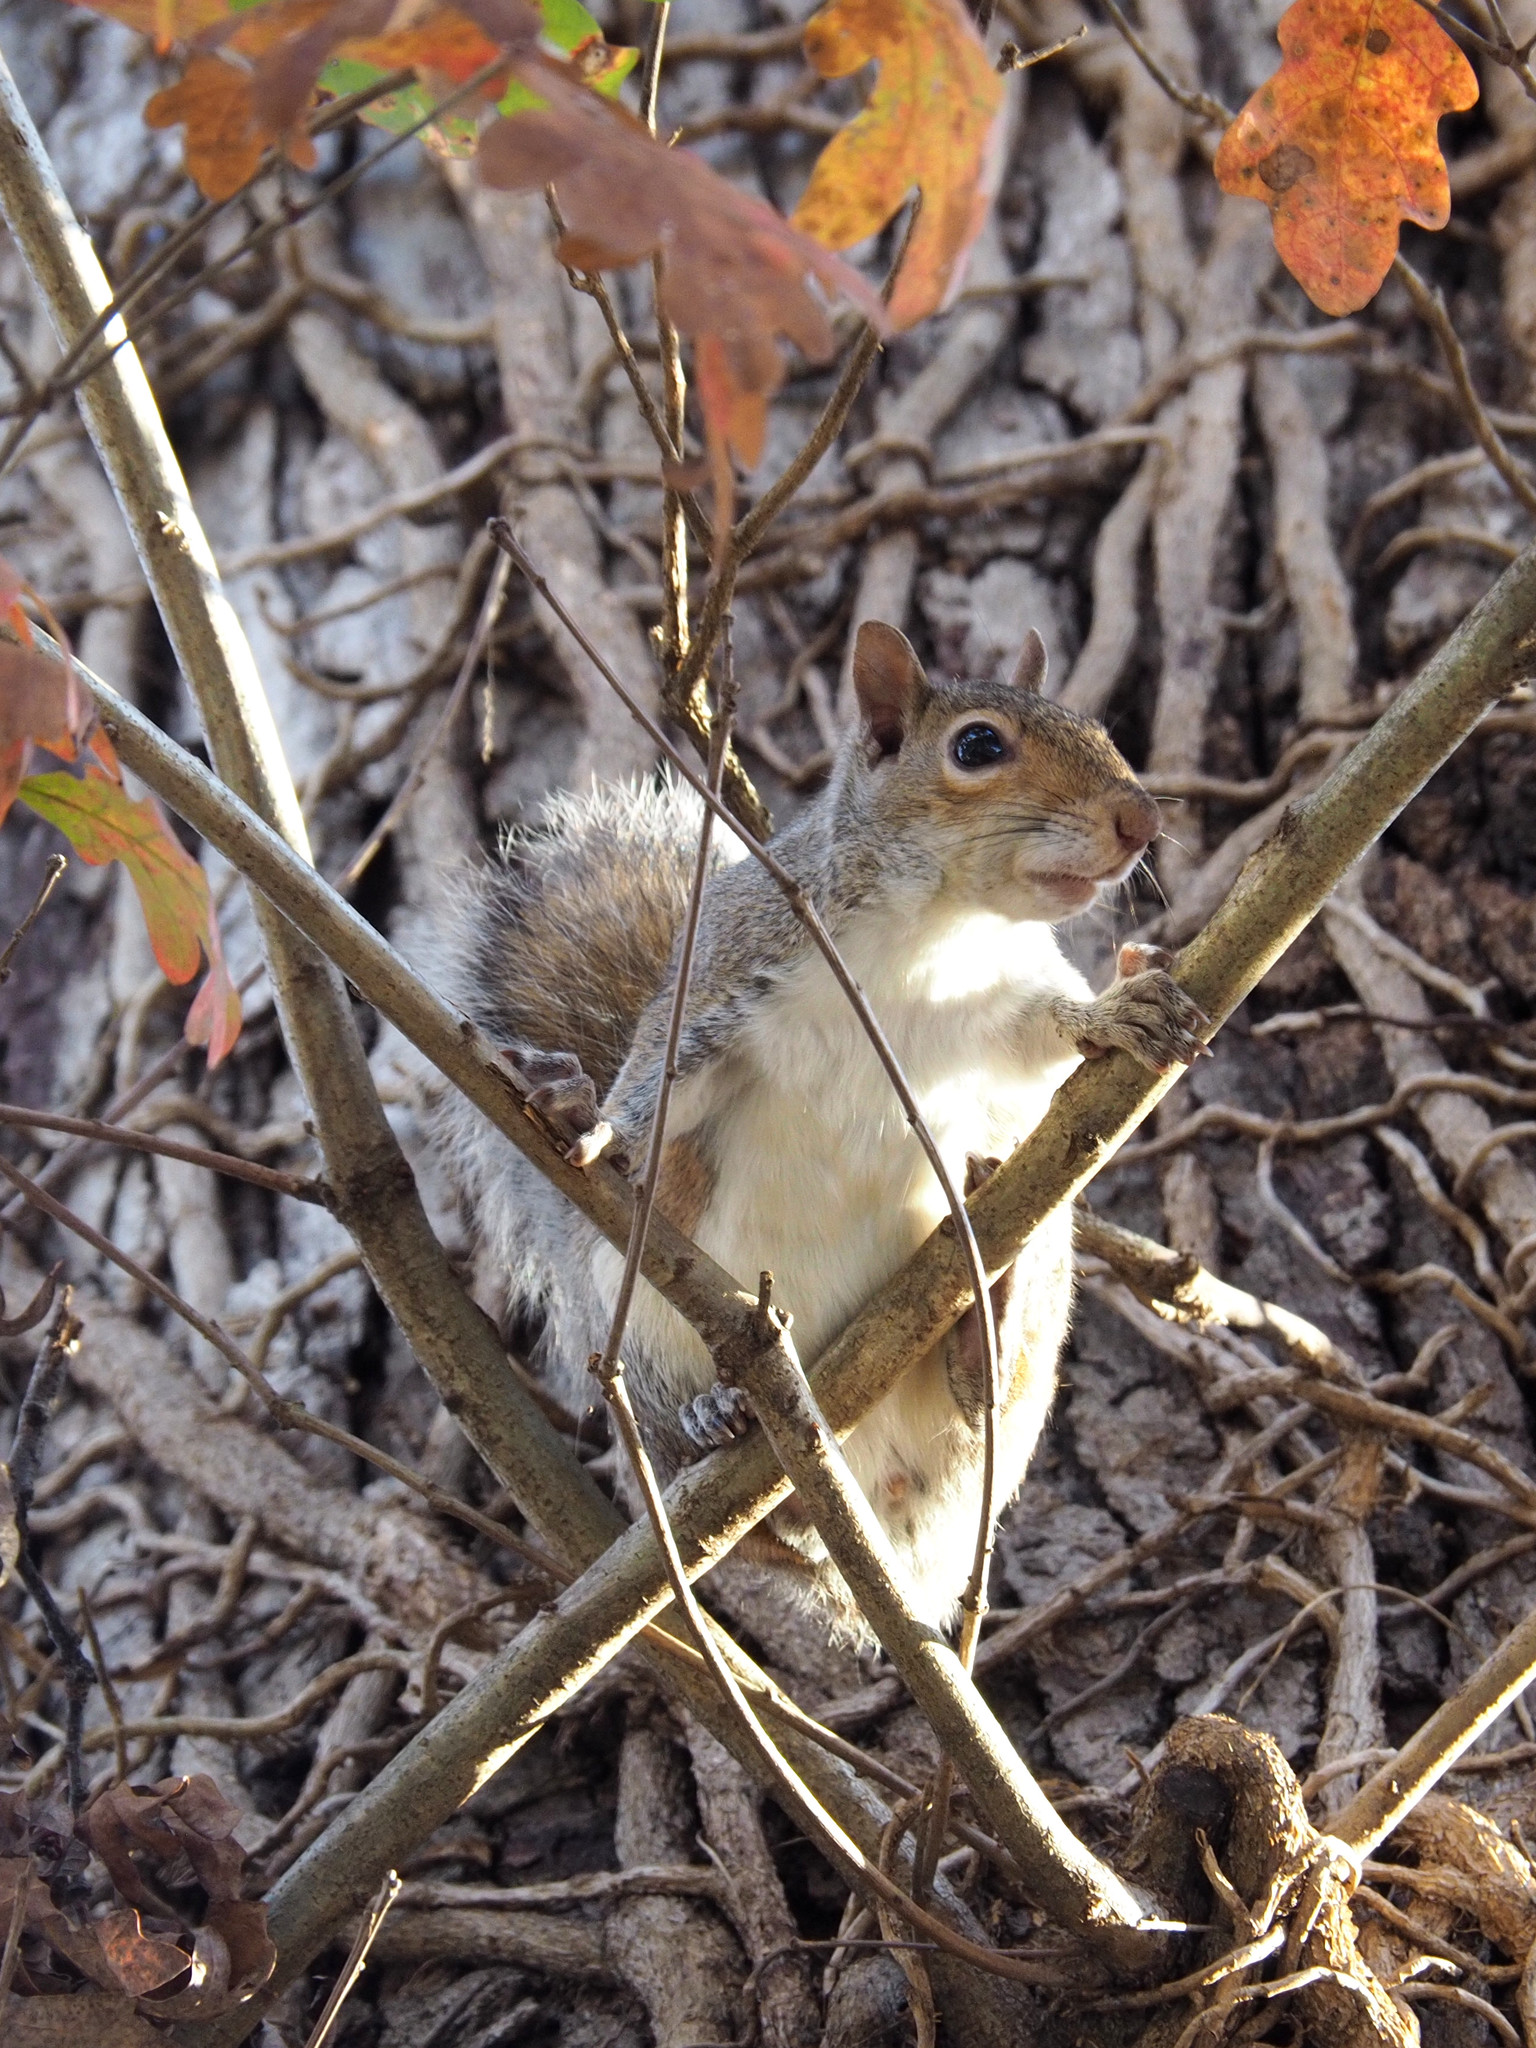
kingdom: Animalia
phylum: Chordata
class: Mammalia
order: Rodentia
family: Sciuridae
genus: Sciurus
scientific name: Sciurus carolinensis
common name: Eastern gray squirrel
